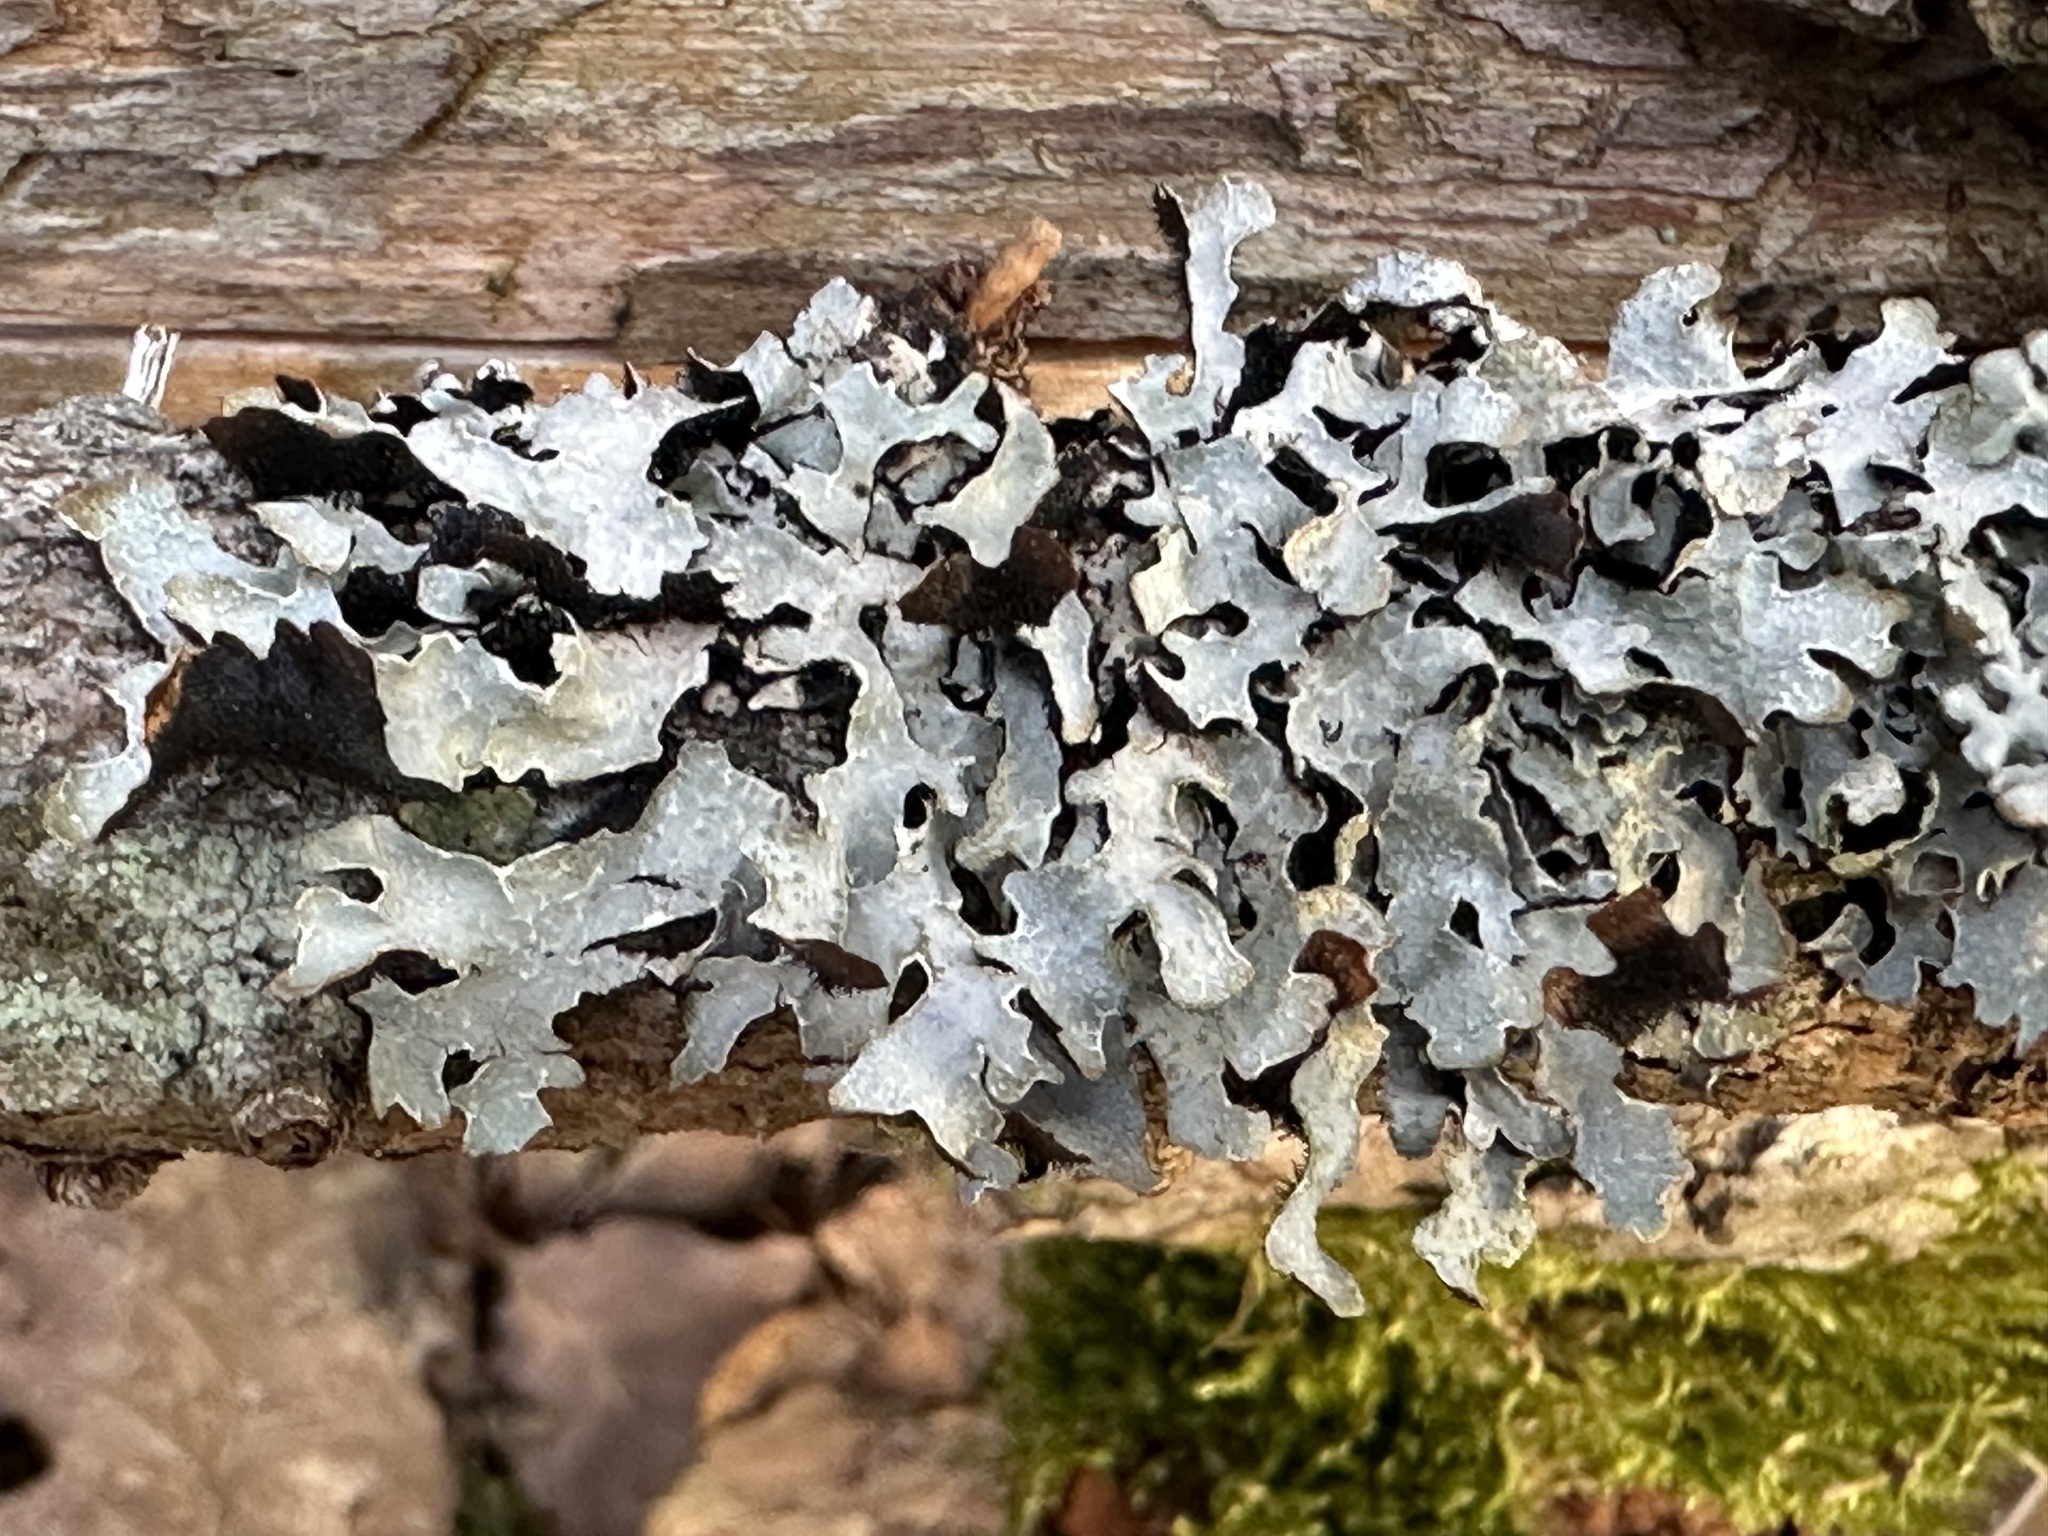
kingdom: Fungi
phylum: Ascomycota
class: Lecanoromycetes
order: Lecanorales
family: Parmeliaceae
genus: Parmelia
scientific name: Parmelia sulcata
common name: Netted shield lichen
